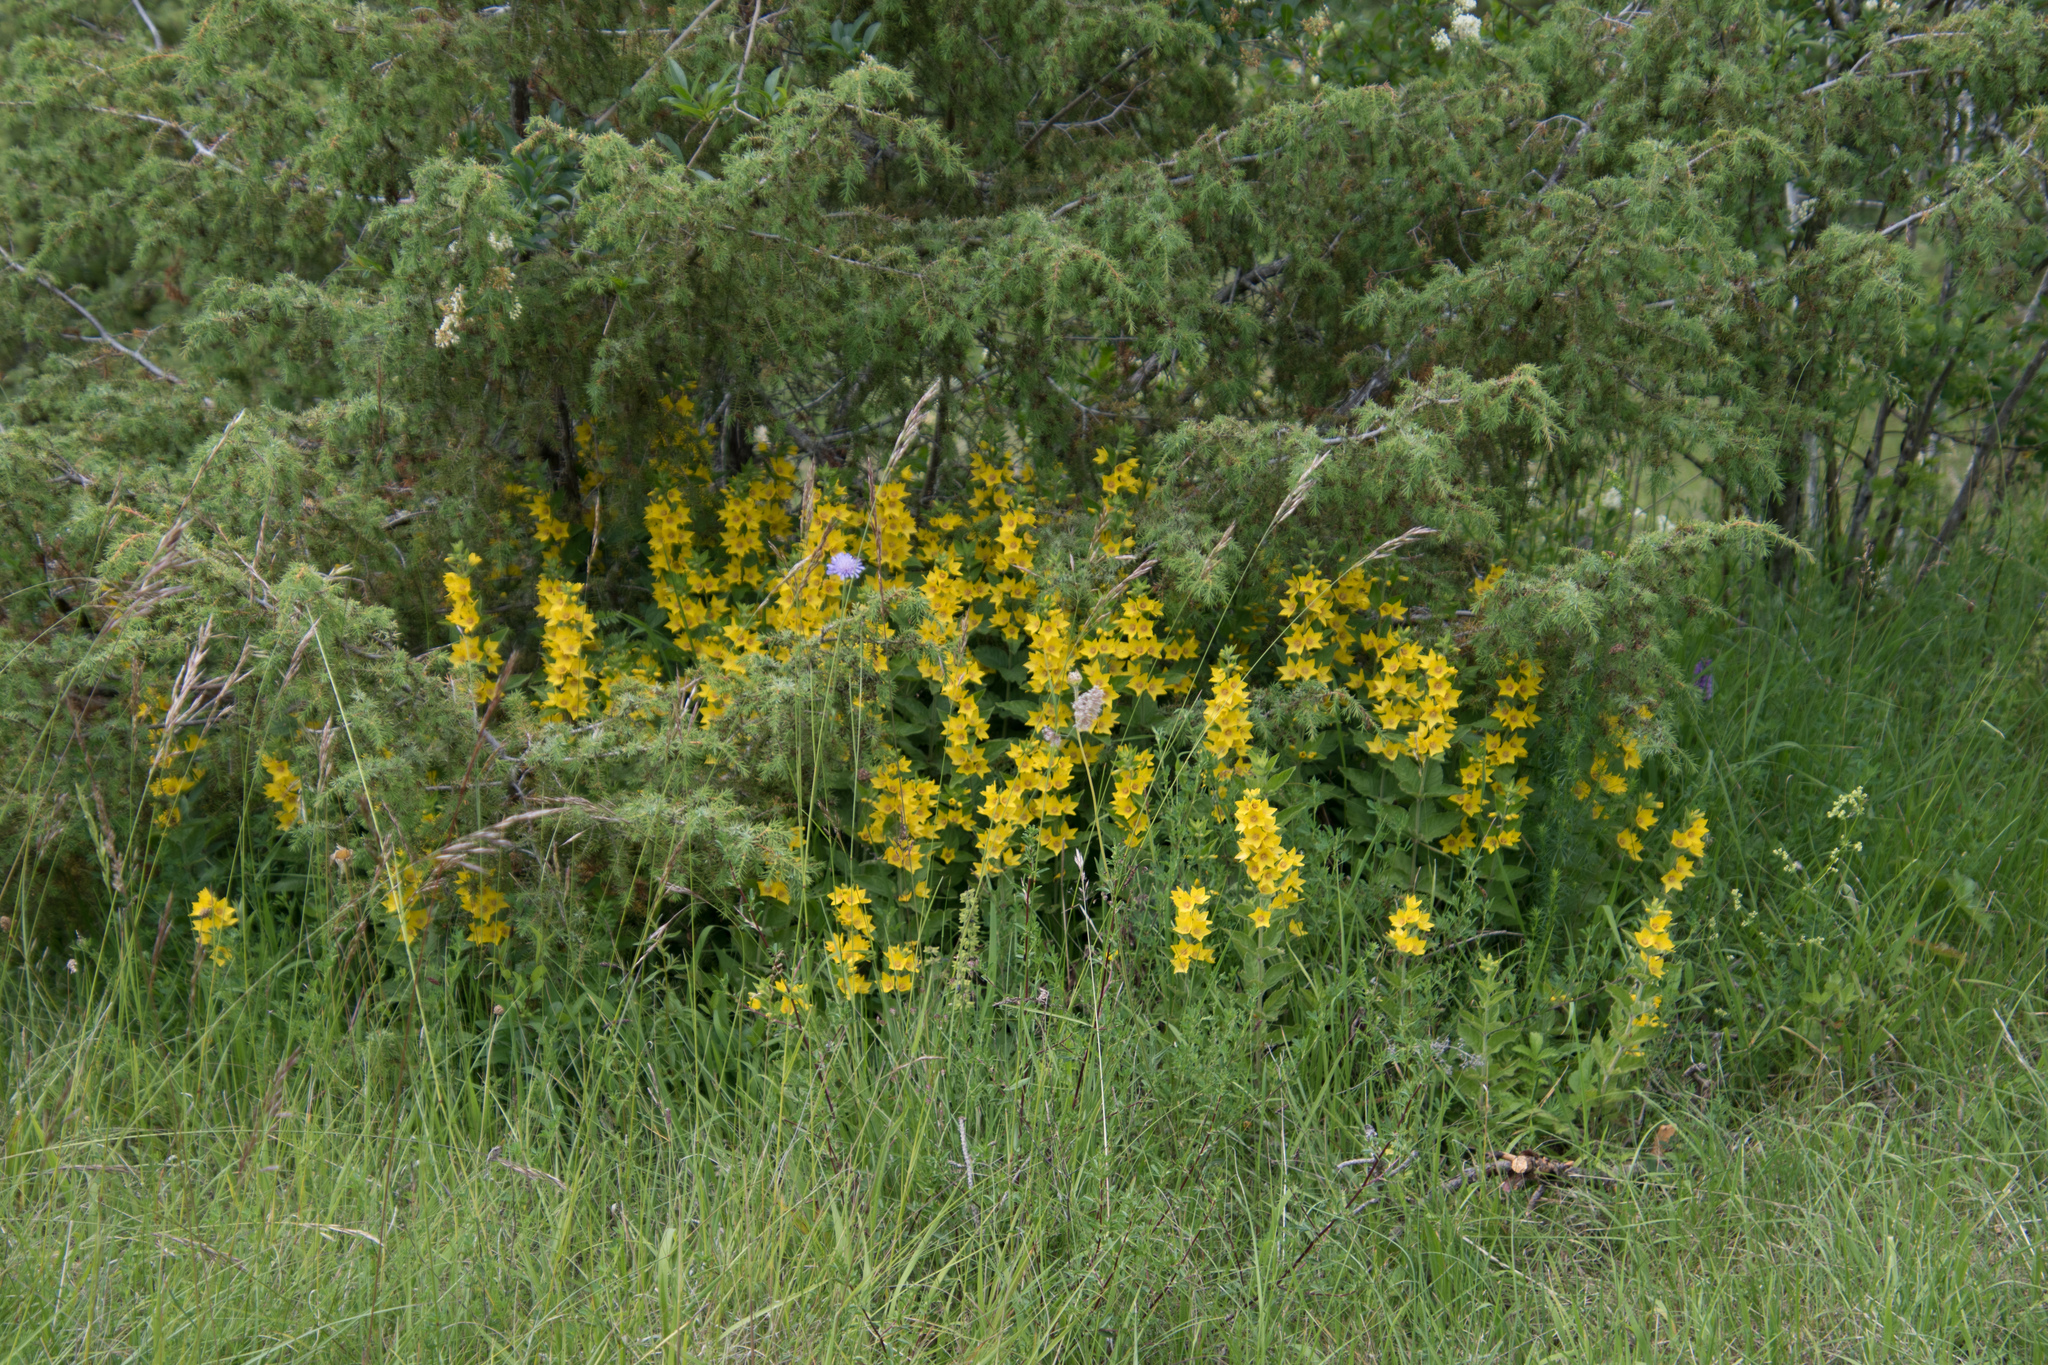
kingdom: Plantae
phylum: Tracheophyta
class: Magnoliopsida
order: Ericales
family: Primulaceae
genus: Lysimachia
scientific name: Lysimachia punctata
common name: Dotted loosestrife
